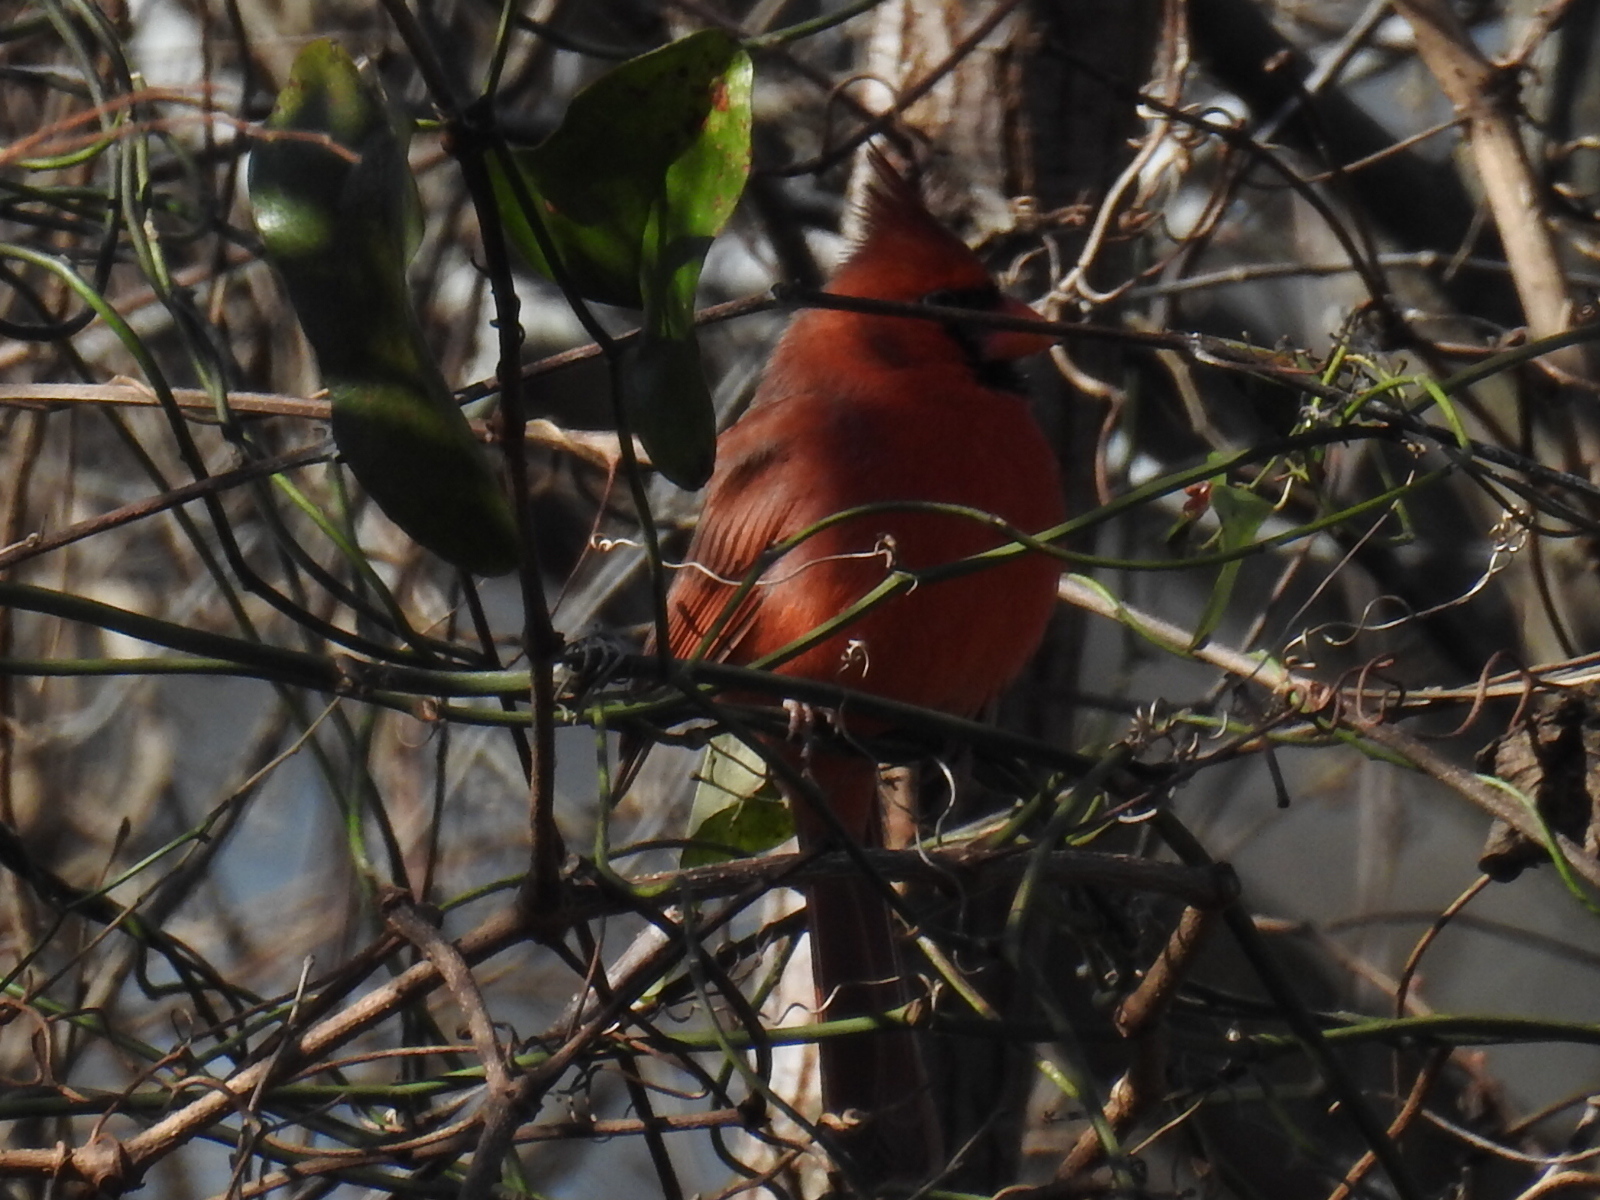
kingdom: Animalia
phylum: Chordata
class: Aves
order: Passeriformes
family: Cardinalidae
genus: Cardinalis
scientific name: Cardinalis cardinalis
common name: Northern cardinal
